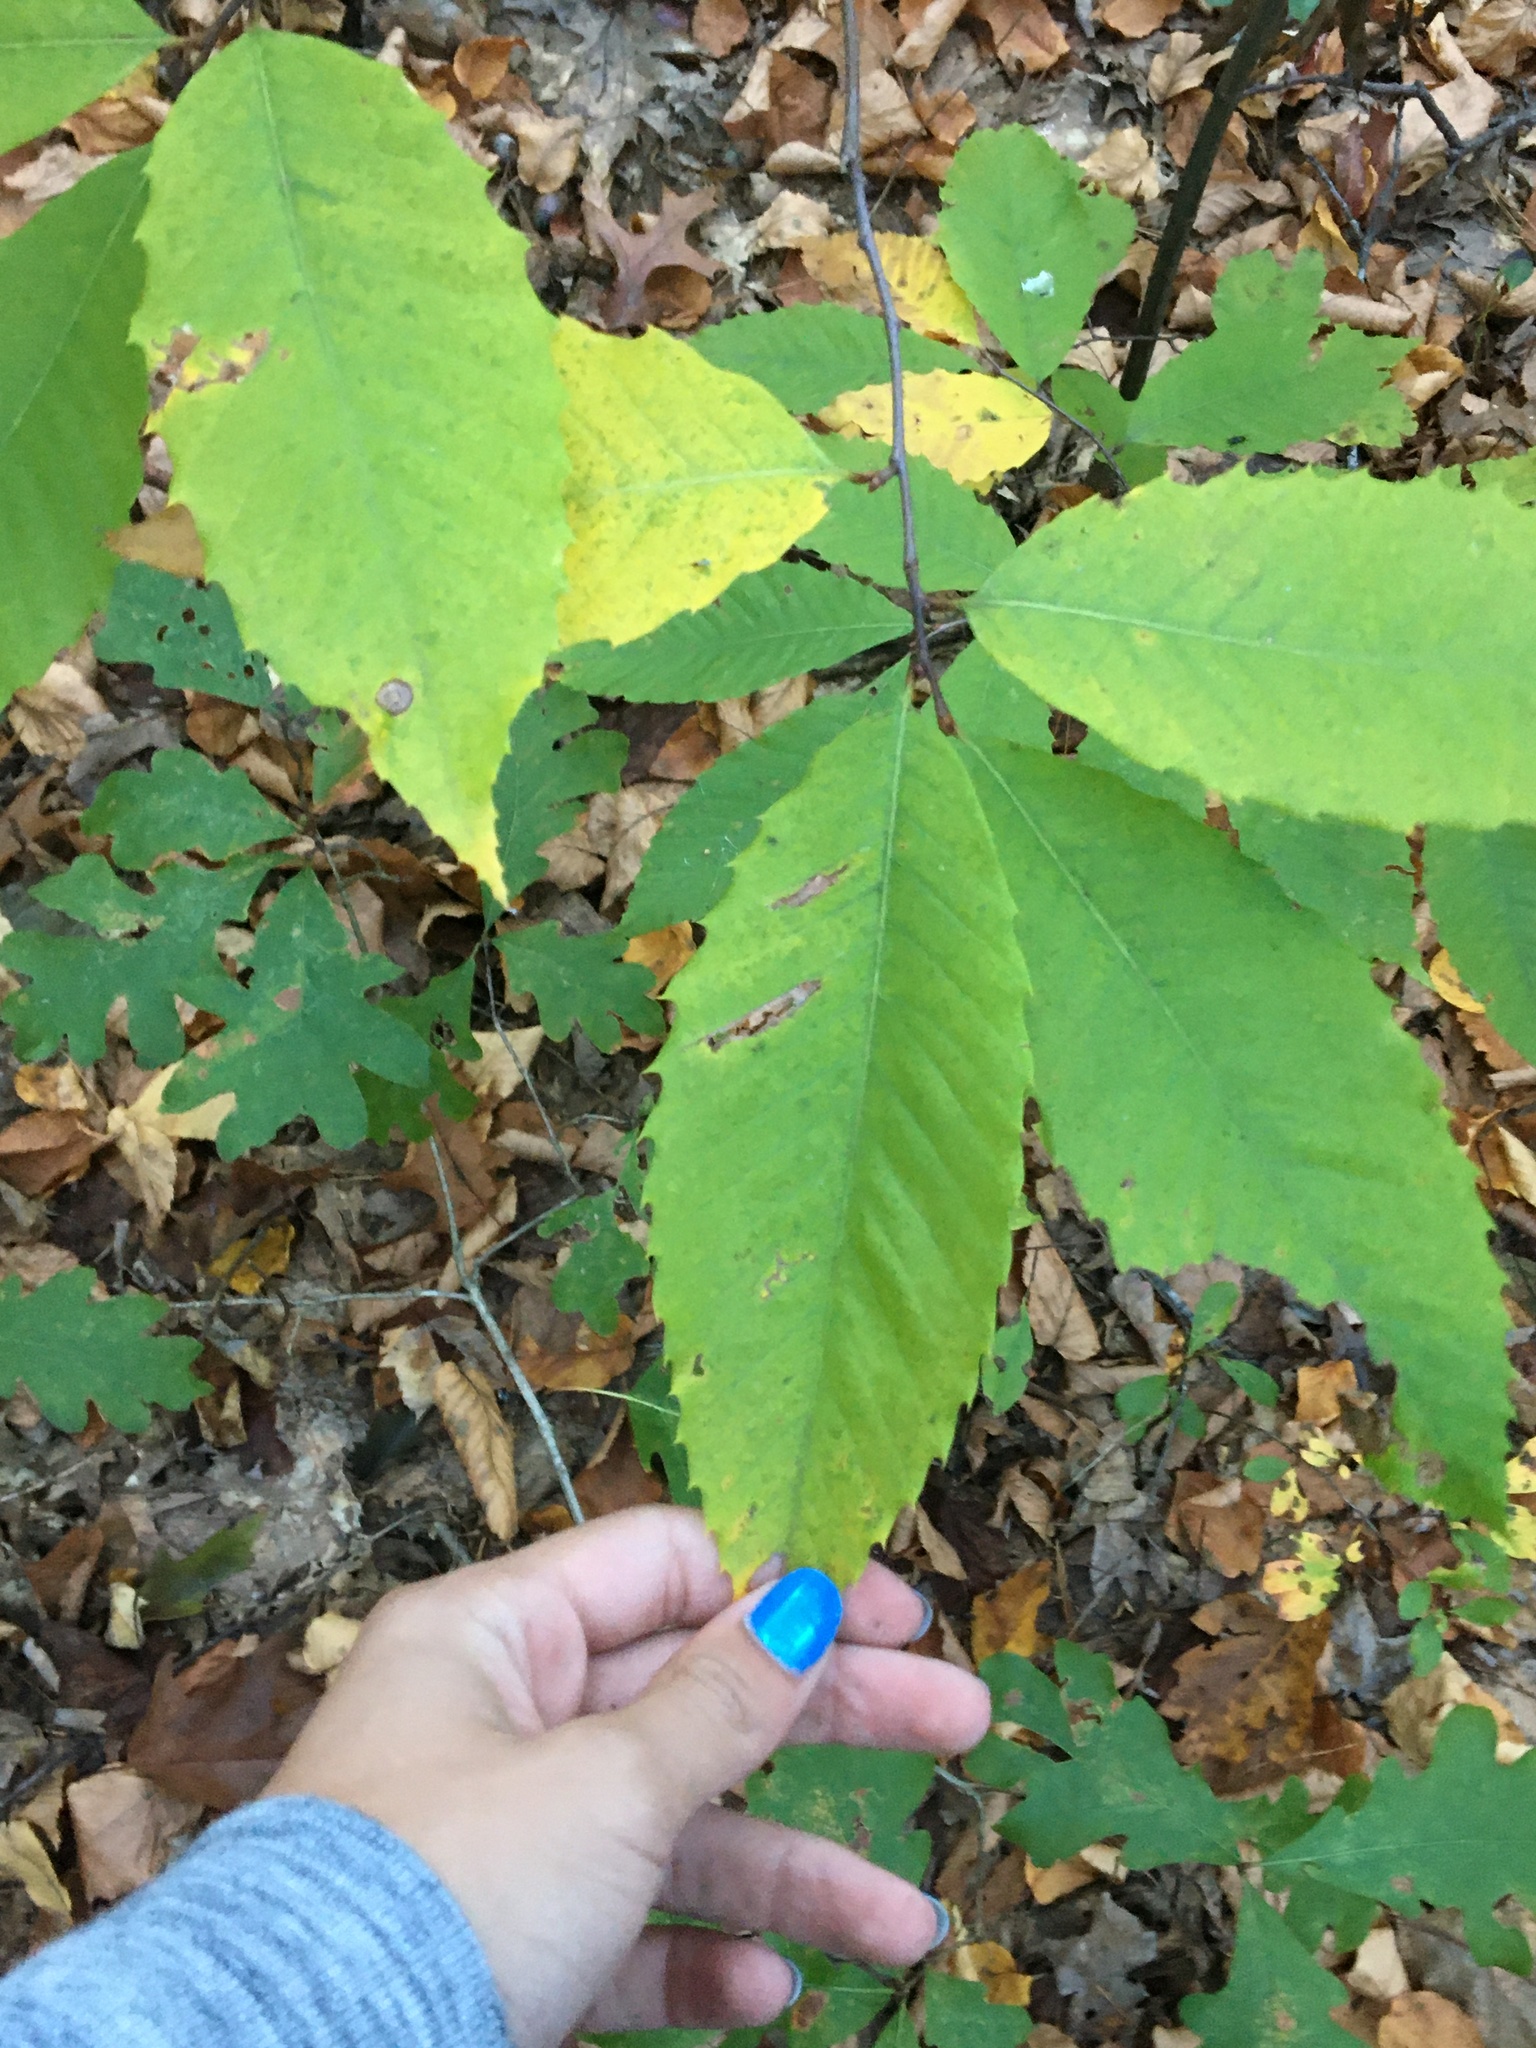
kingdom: Plantae
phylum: Tracheophyta
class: Magnoliopsida
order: Fagales
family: Fagaceae
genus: Castanea
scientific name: Castanea dentata
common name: American chestnut
